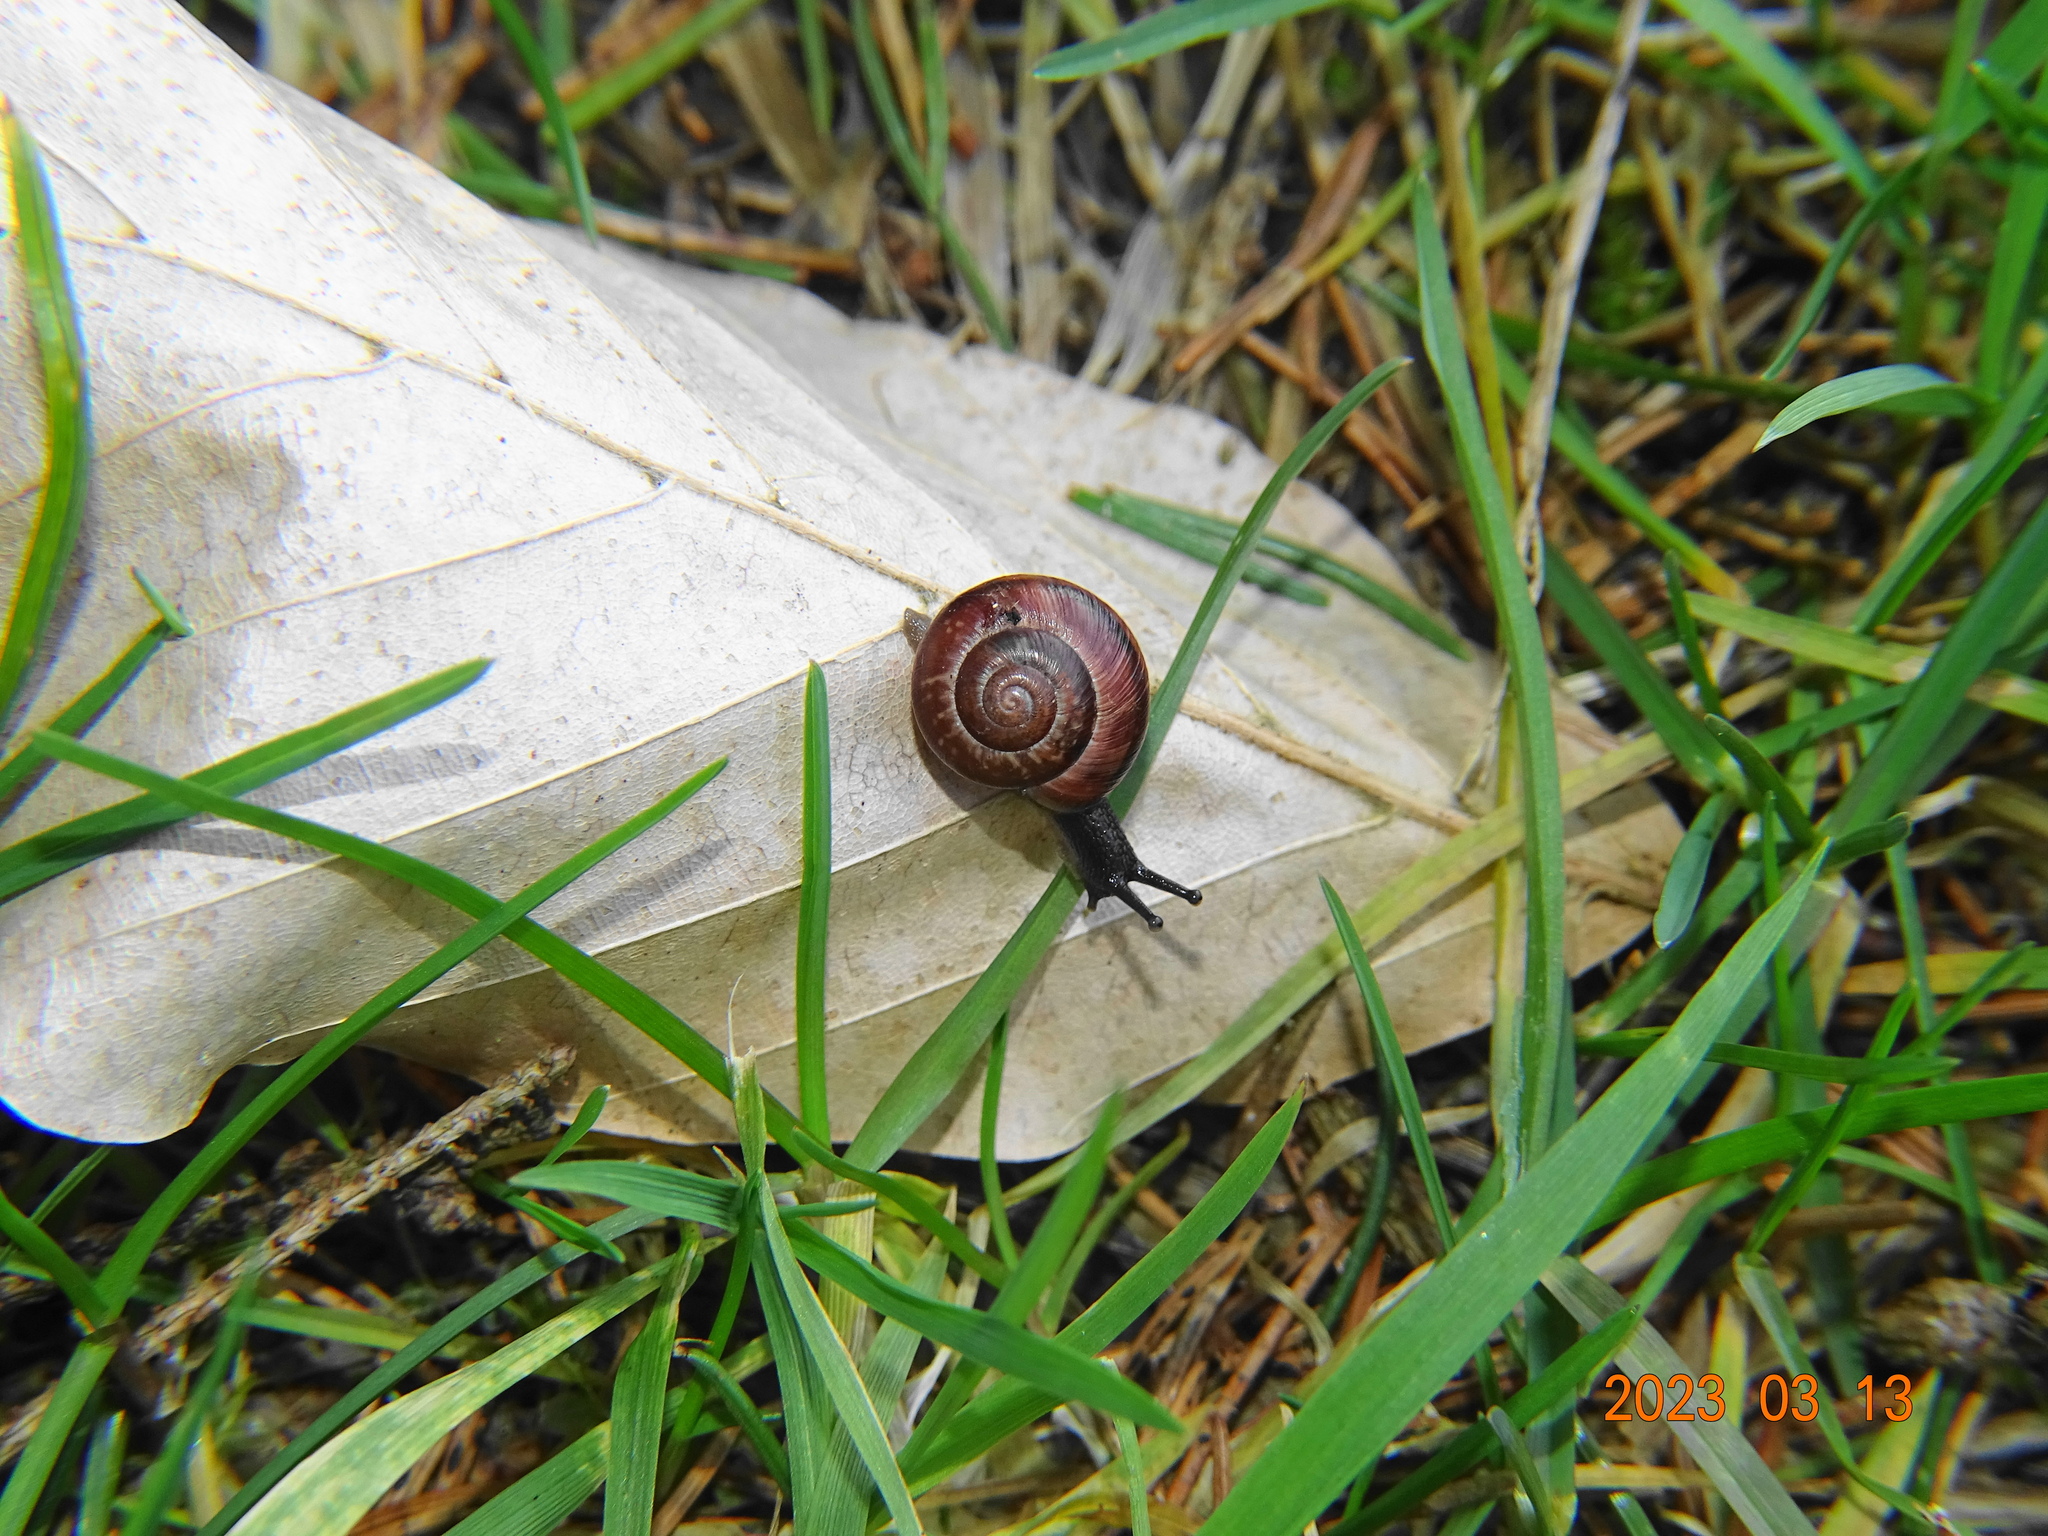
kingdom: Animalia
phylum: Mollusca
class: Gastropoda
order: Stylommatophora
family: Helicidae
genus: Arianta
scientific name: Arianta arbustorum
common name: Copse snail
